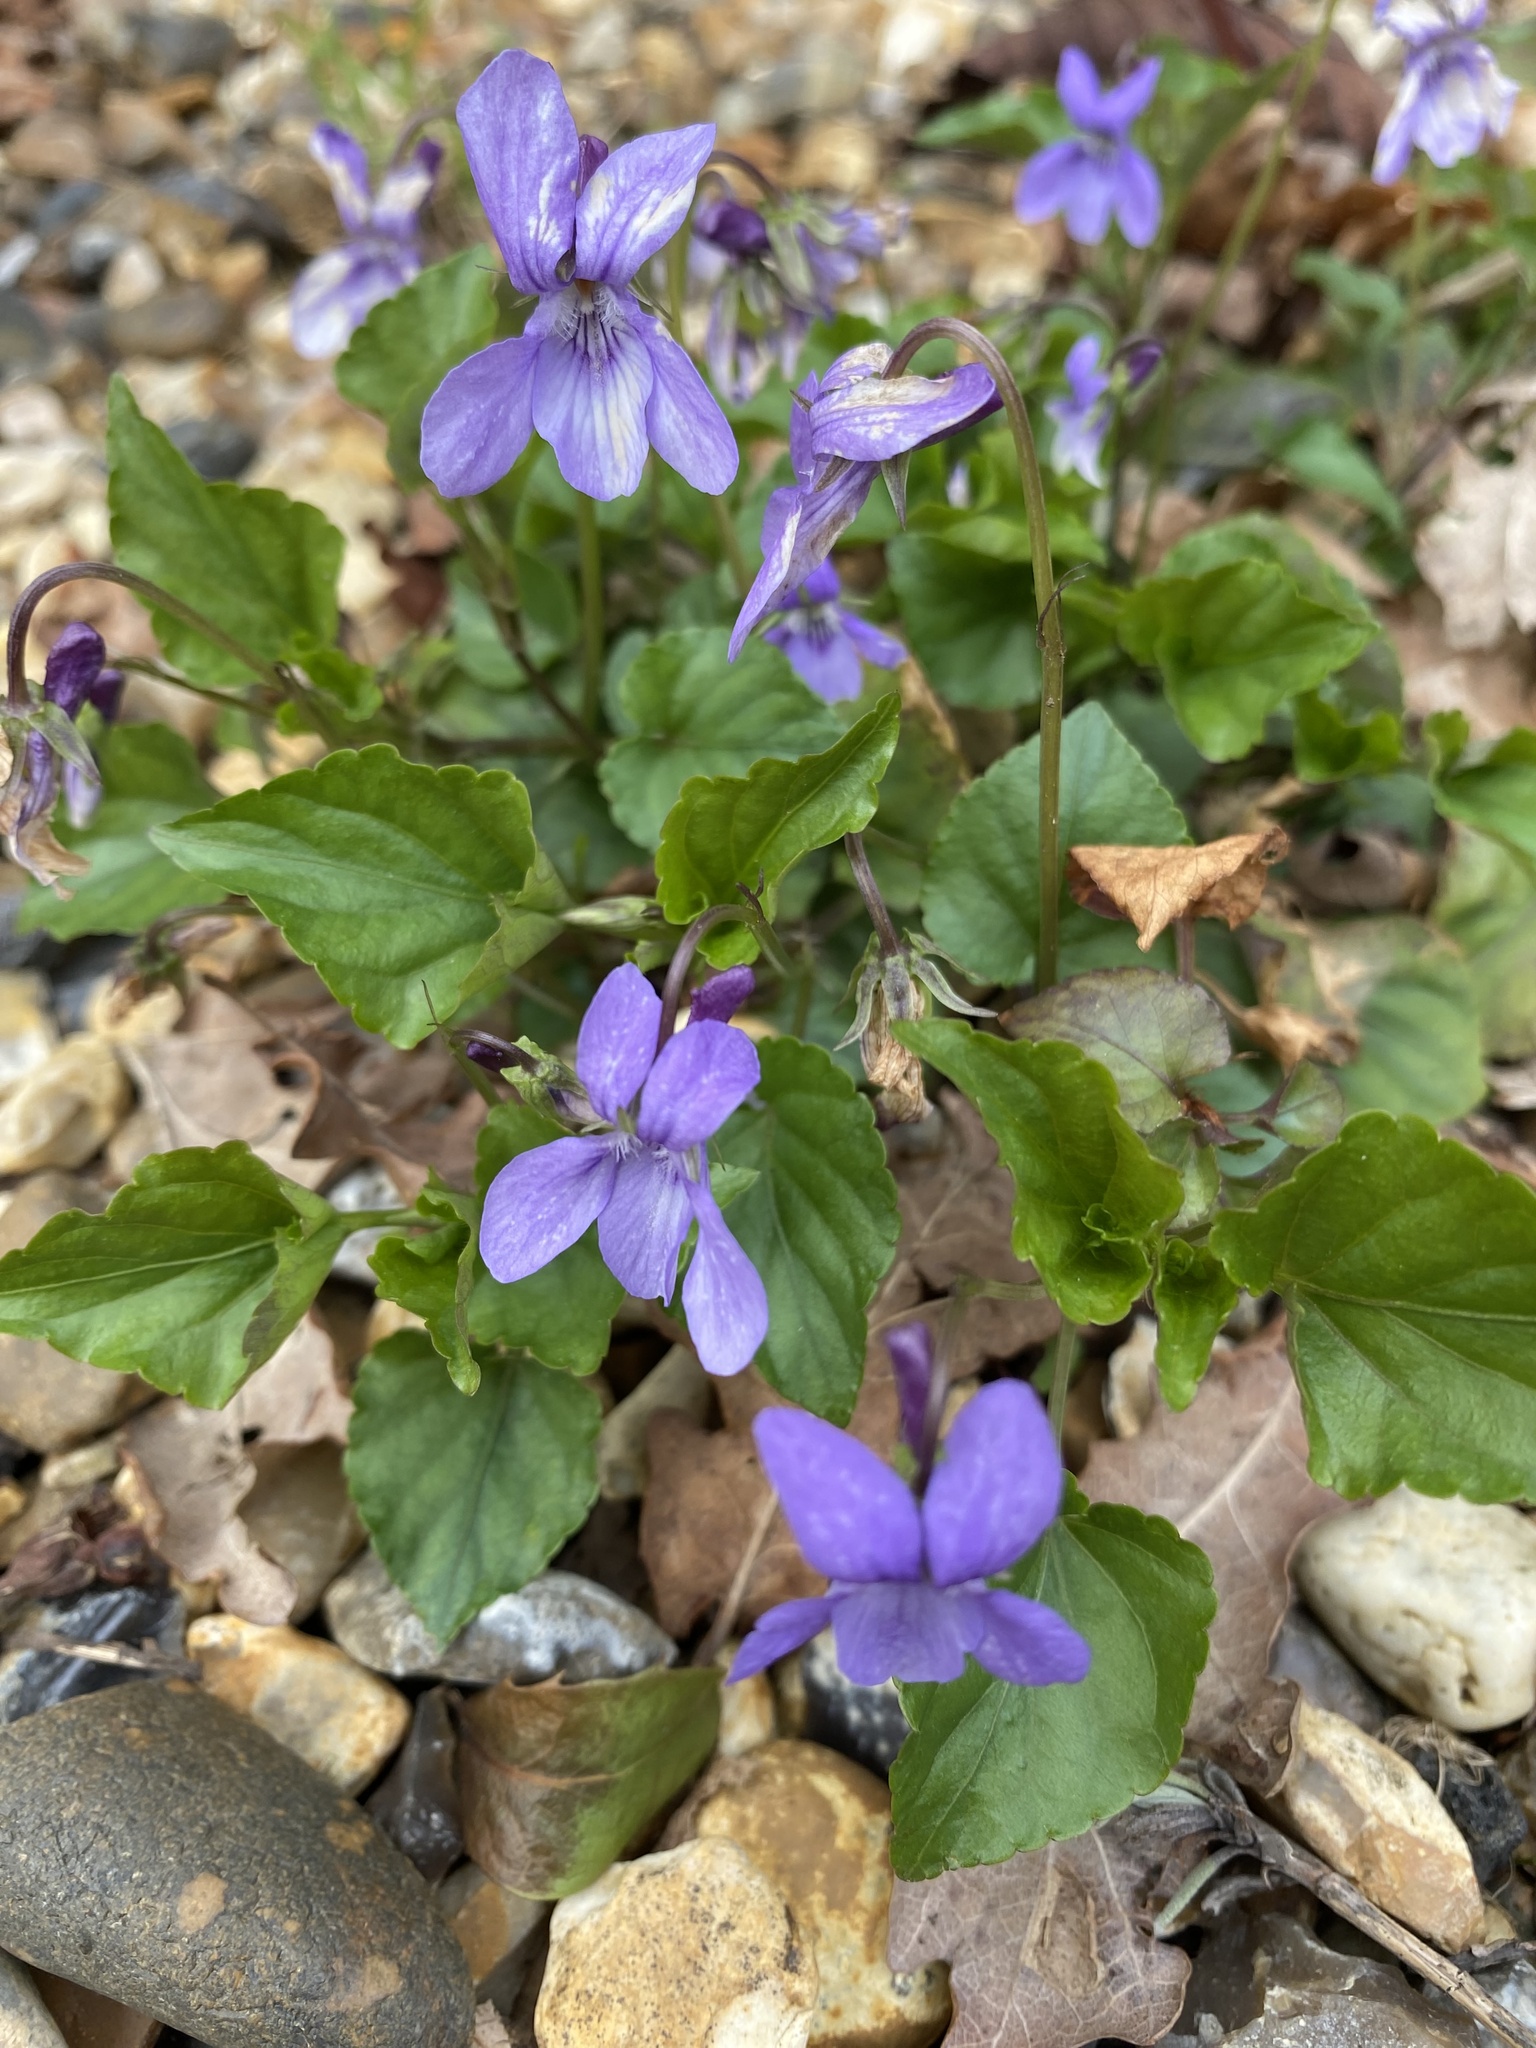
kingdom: Plantae
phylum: Tracheophyta
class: Magnoliopsida
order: Malpighiales
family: Violaceae
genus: Viola
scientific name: Viola reichenbachiana
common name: Early dog-violet
